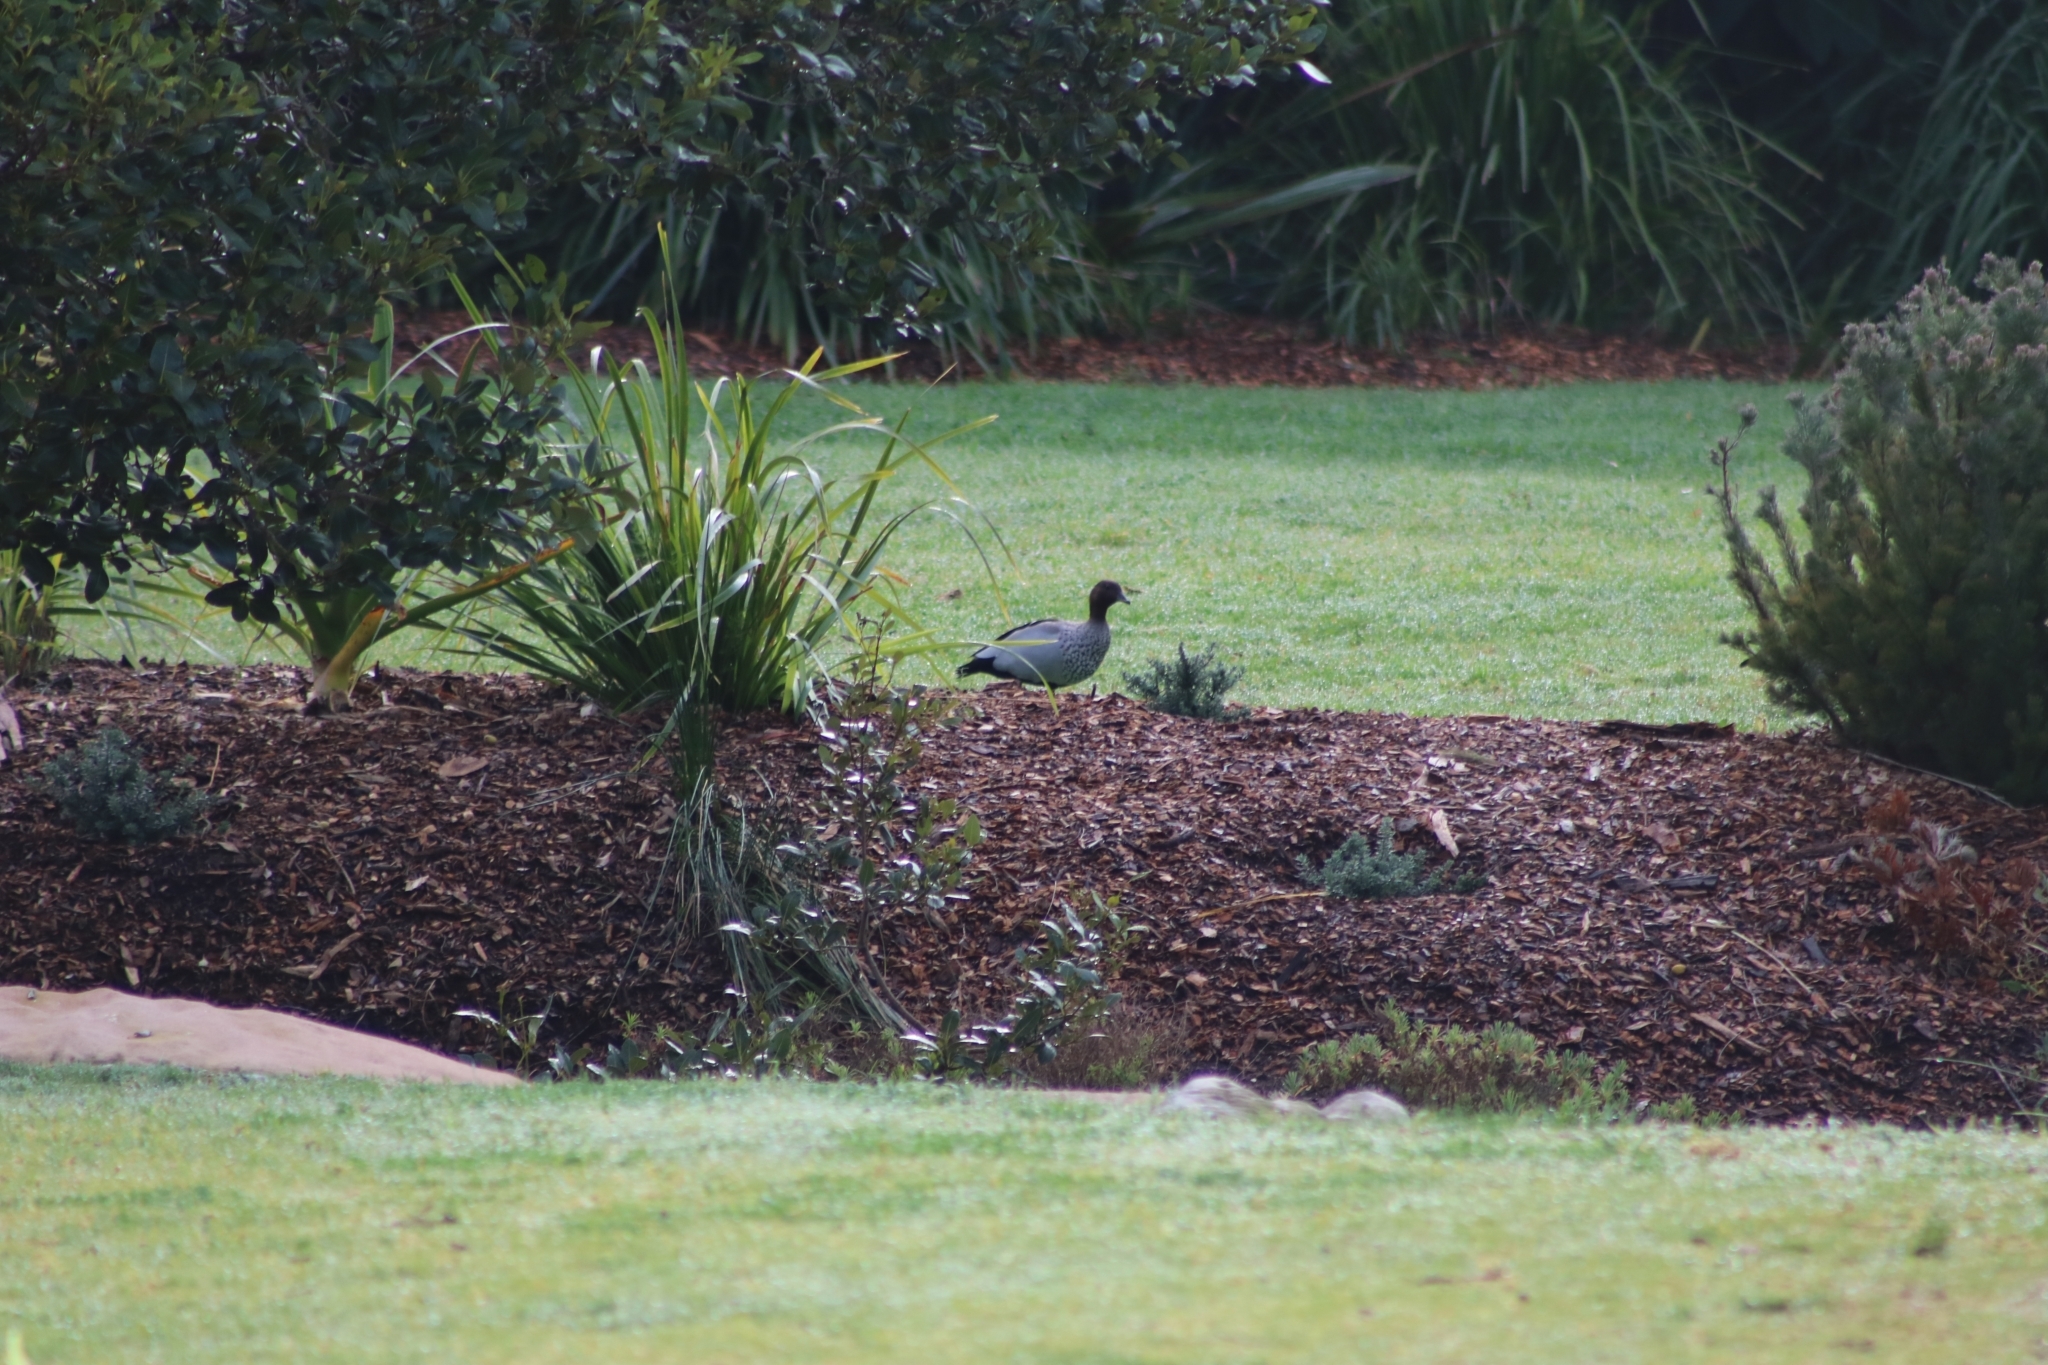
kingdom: Animalia
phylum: Chordata
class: Aves
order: Anseriformes
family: Anatidae
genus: Chenonetta
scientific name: Chenonetta jubata
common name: Maned duck
